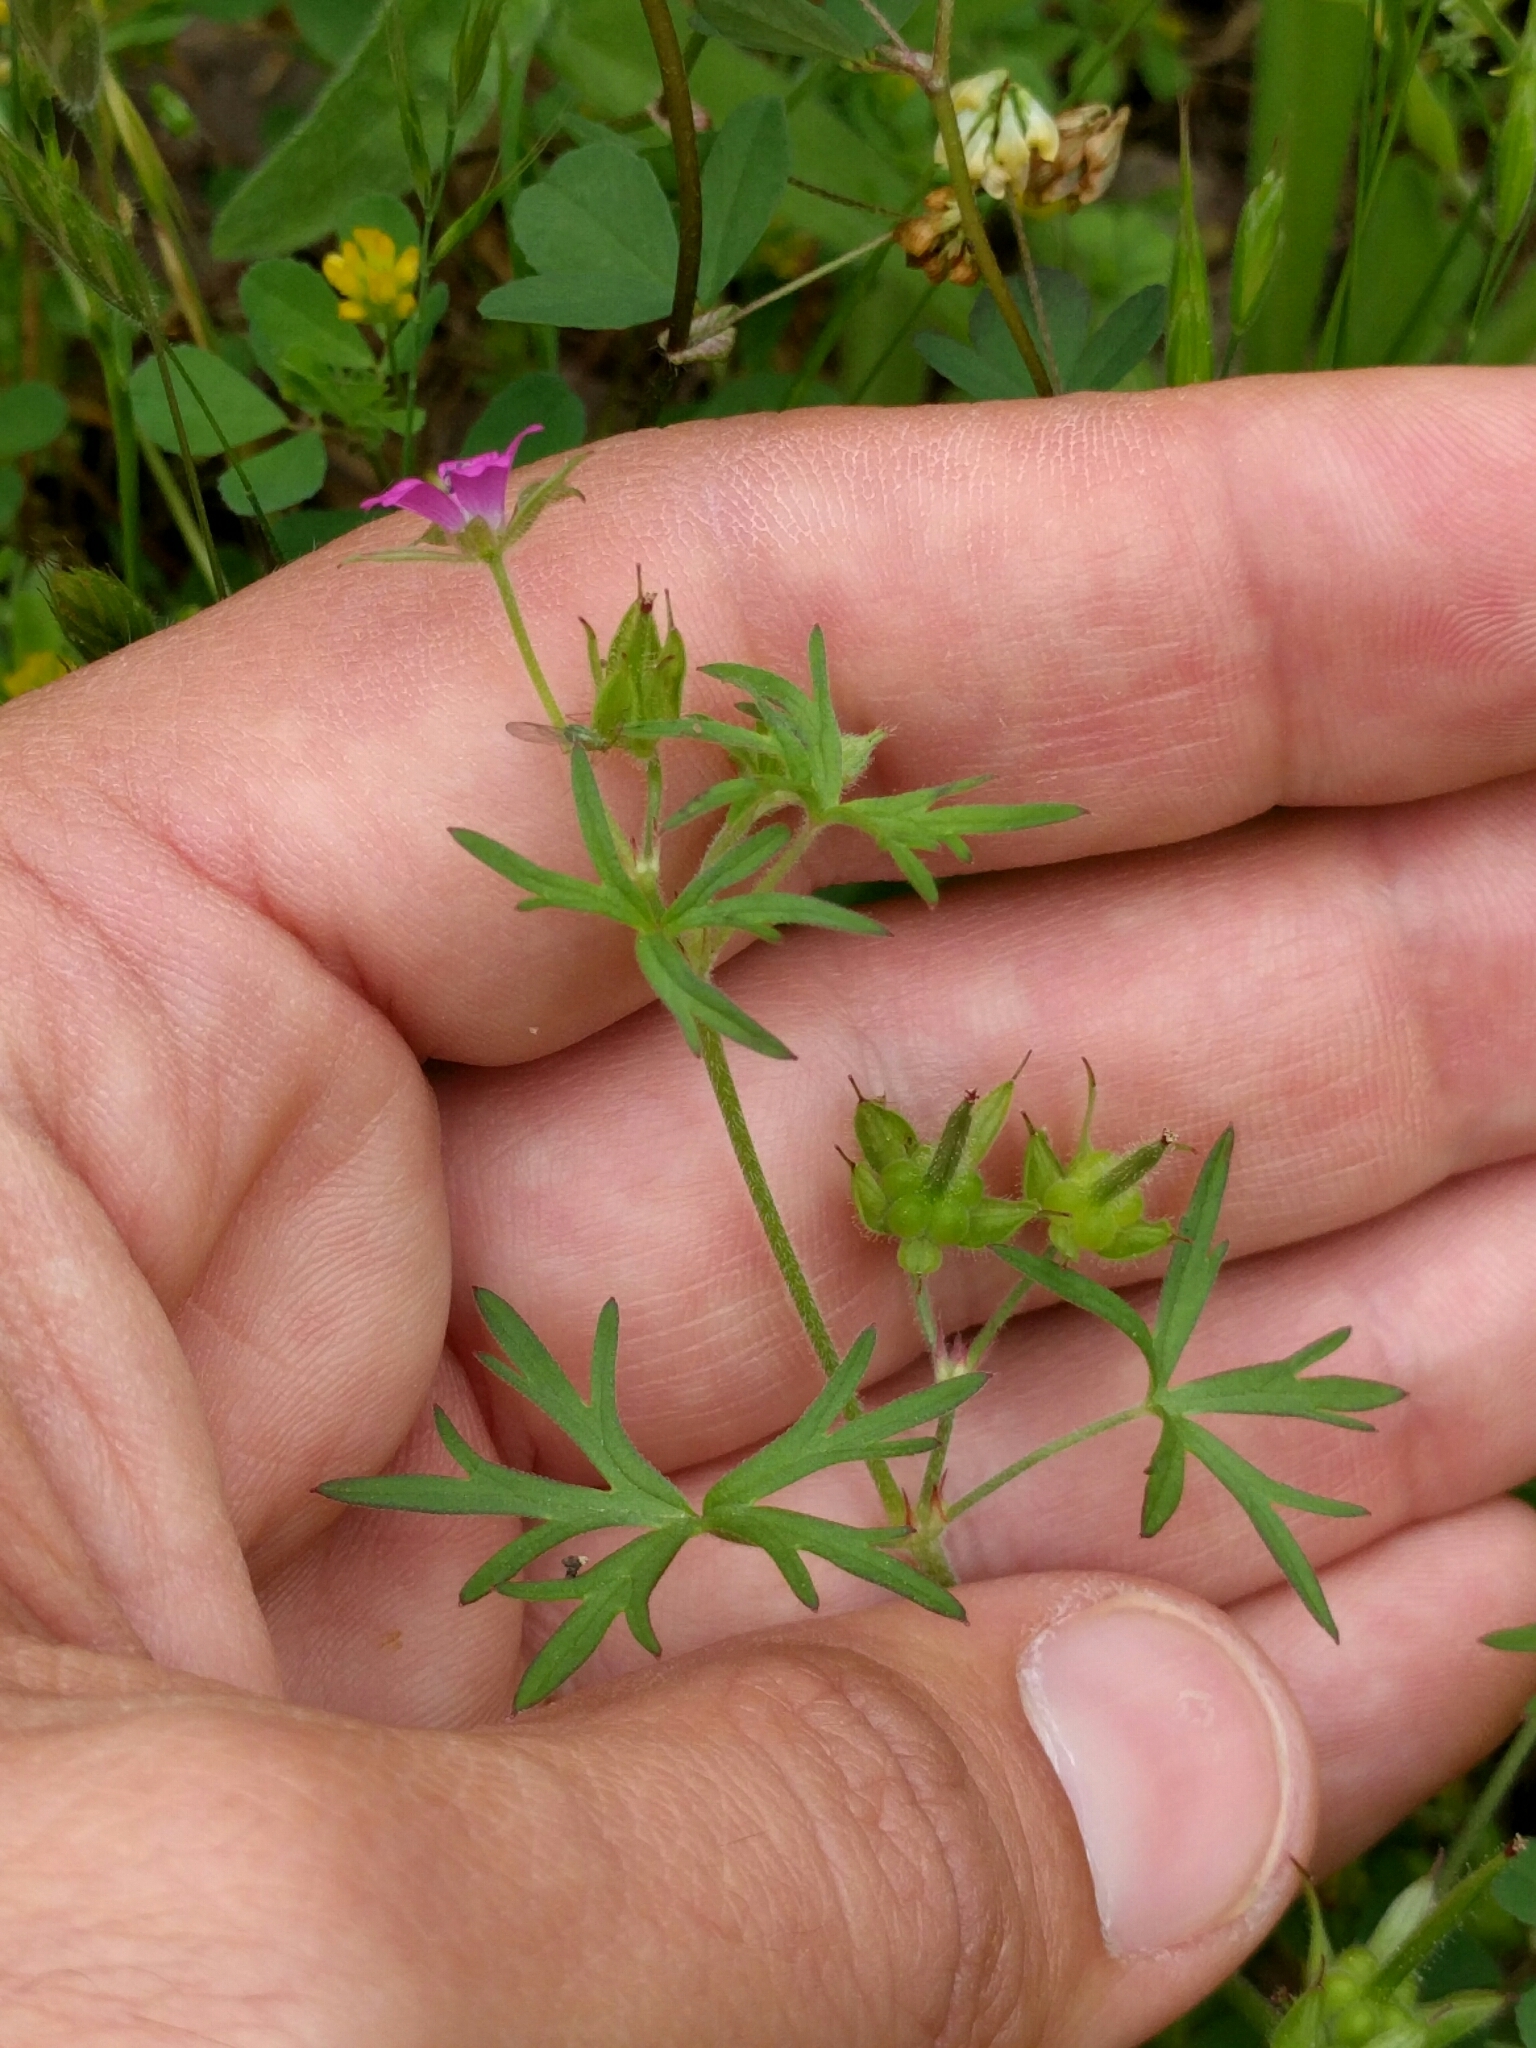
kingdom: Plantae
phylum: Tracheophyta
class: Magnoliopsida
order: Geraniales
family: Geraniaceae
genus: Geranium
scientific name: Geranium dissectum
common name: Cut-leaved crane's-bill
